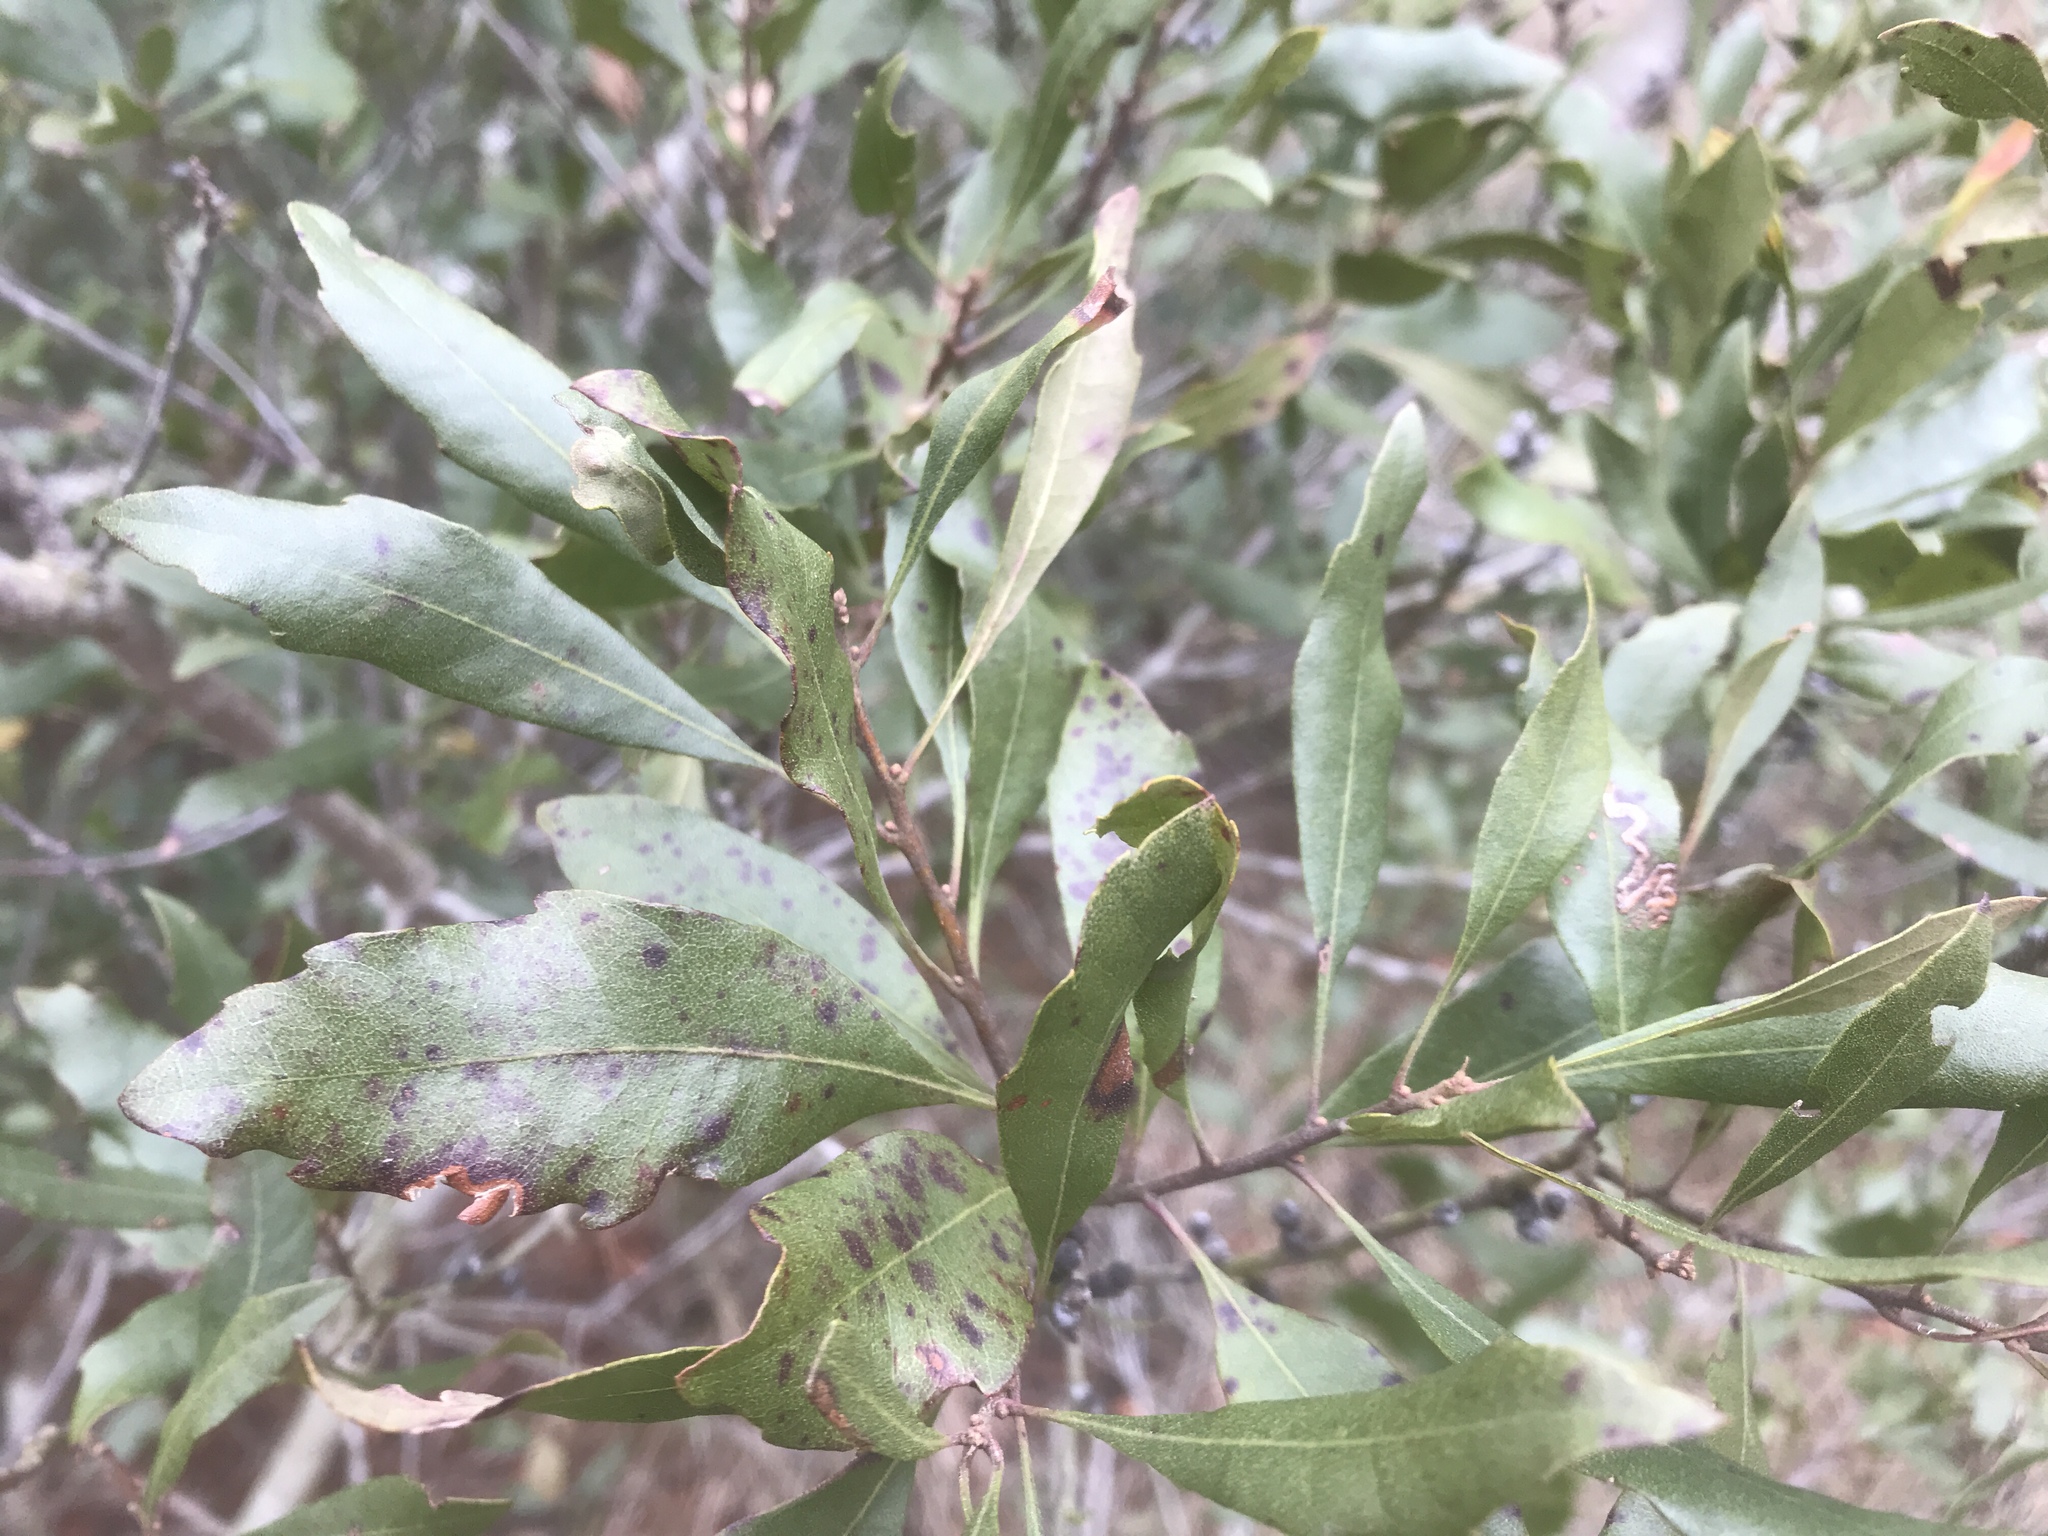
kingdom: Plantae
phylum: Tracheophyta
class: Magnoliopsida
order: Fagales
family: Myricaceae
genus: Morella
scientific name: Morella cerifera
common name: Wax myrtle
